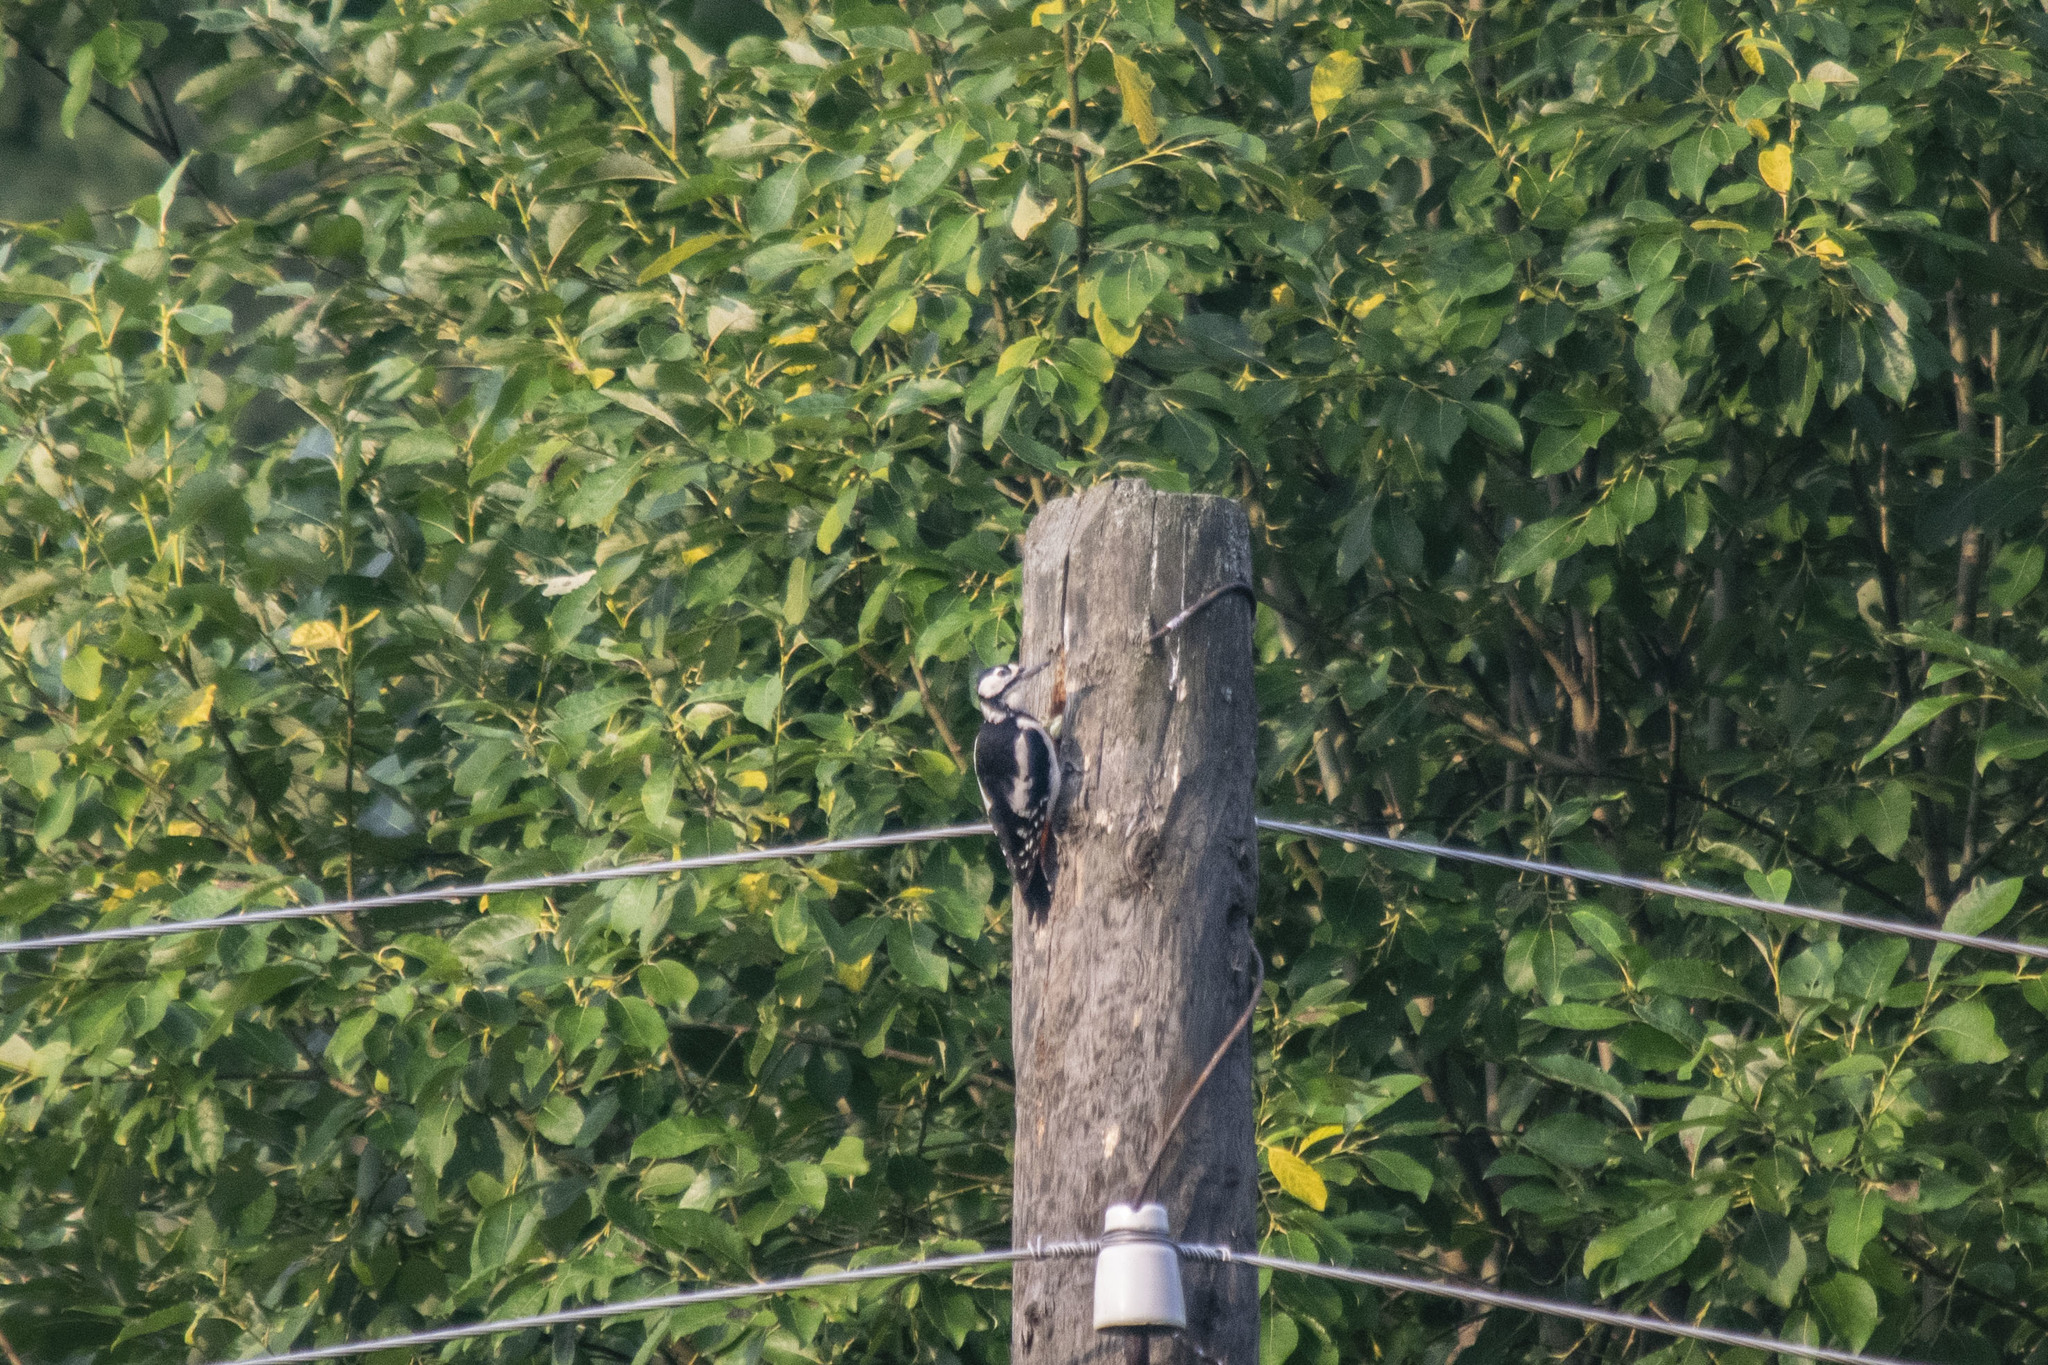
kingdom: Animalia
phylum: Chordata
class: Aves
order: Piciformes
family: Picidae
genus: Dendrocopos
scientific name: Dendrocopos major
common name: Great spotted woodpecker
